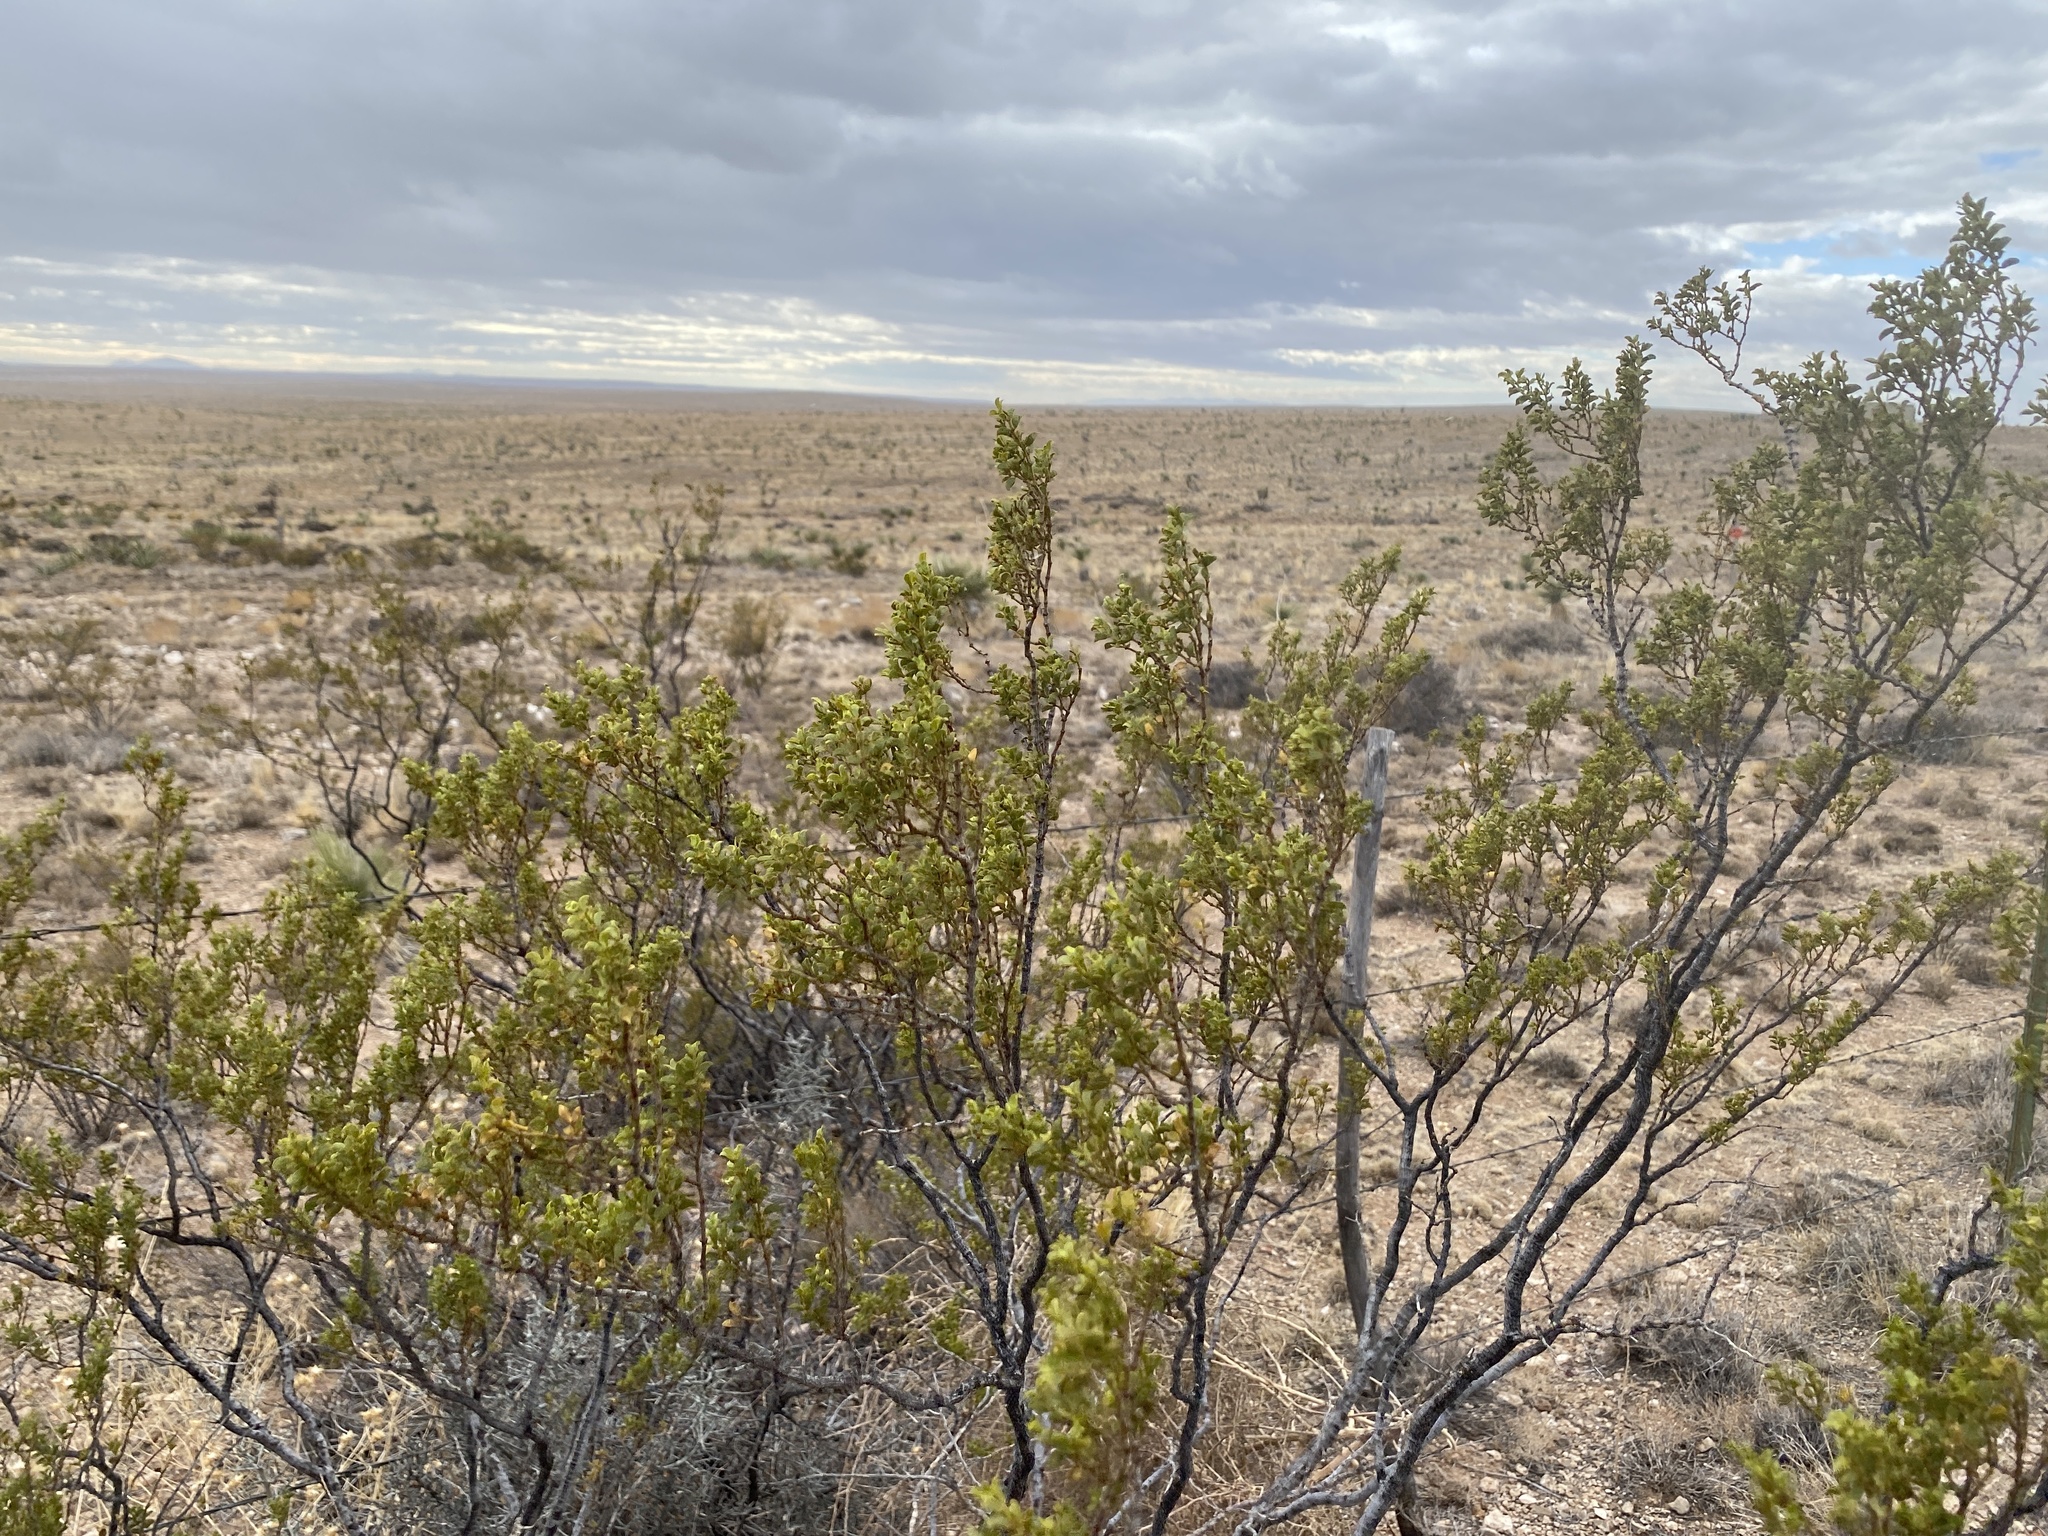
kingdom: Plantae
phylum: Tracheophyta
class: Magnoliopsida
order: Zygophyllales
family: Zygophyllaceae
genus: Larrea
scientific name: Larrea tridentata
